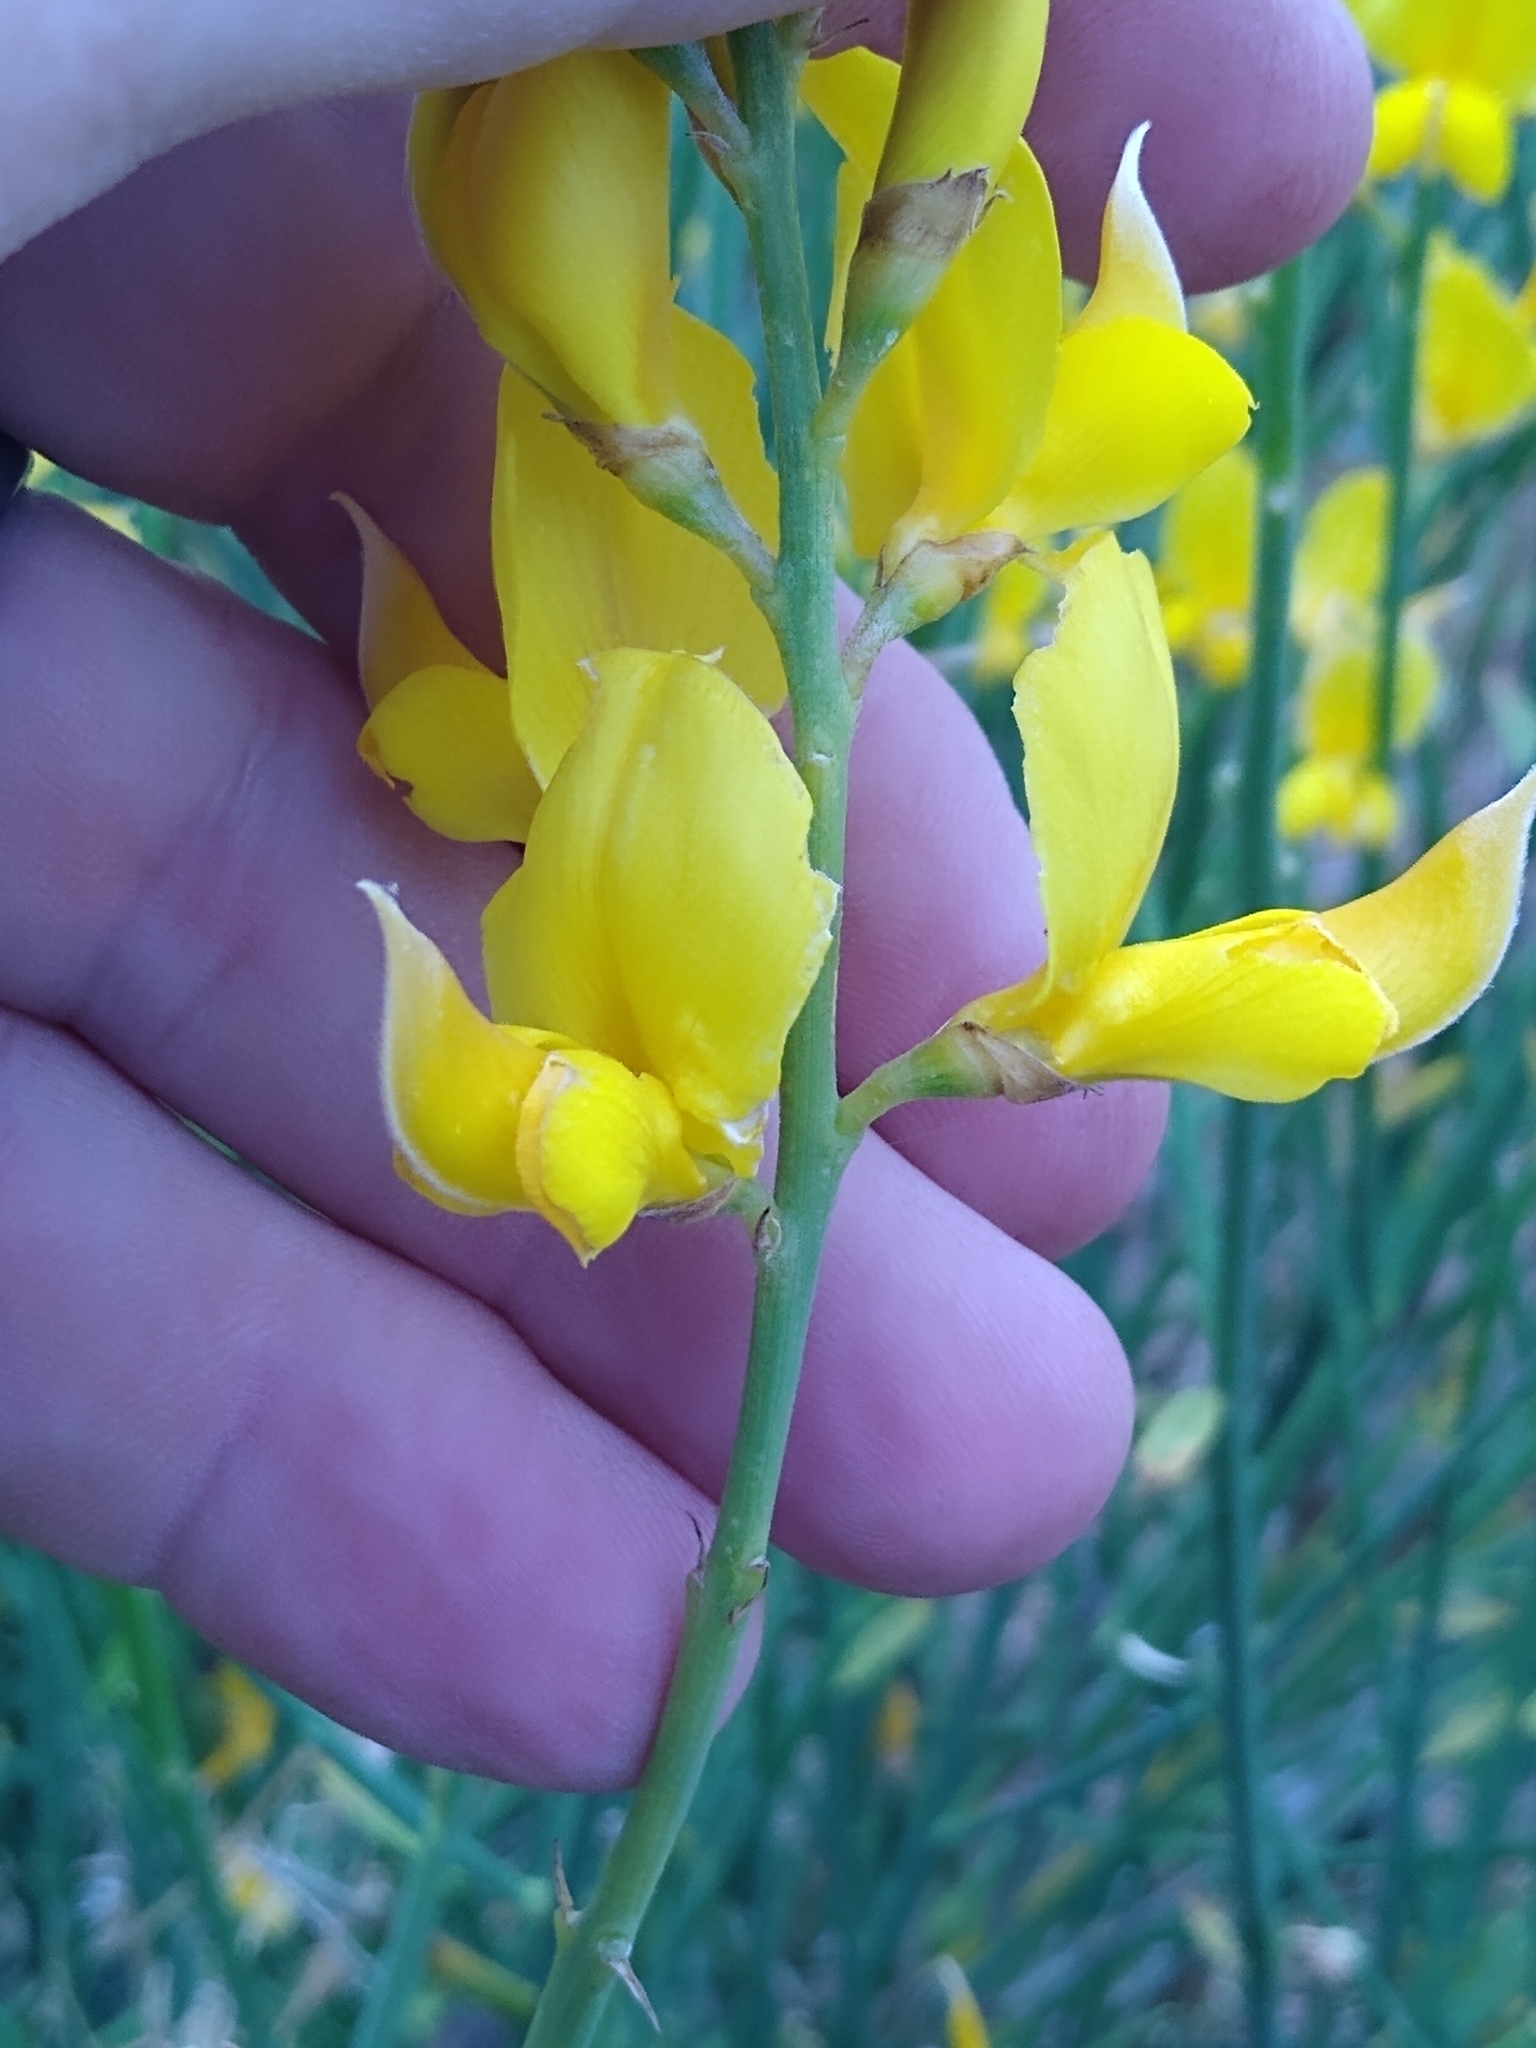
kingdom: Plantae
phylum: Tracheophyta
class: Magnoliopsida
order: Fabales
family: Fabaceae
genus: Spartium
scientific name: Spartium junceum
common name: Spanish broom
